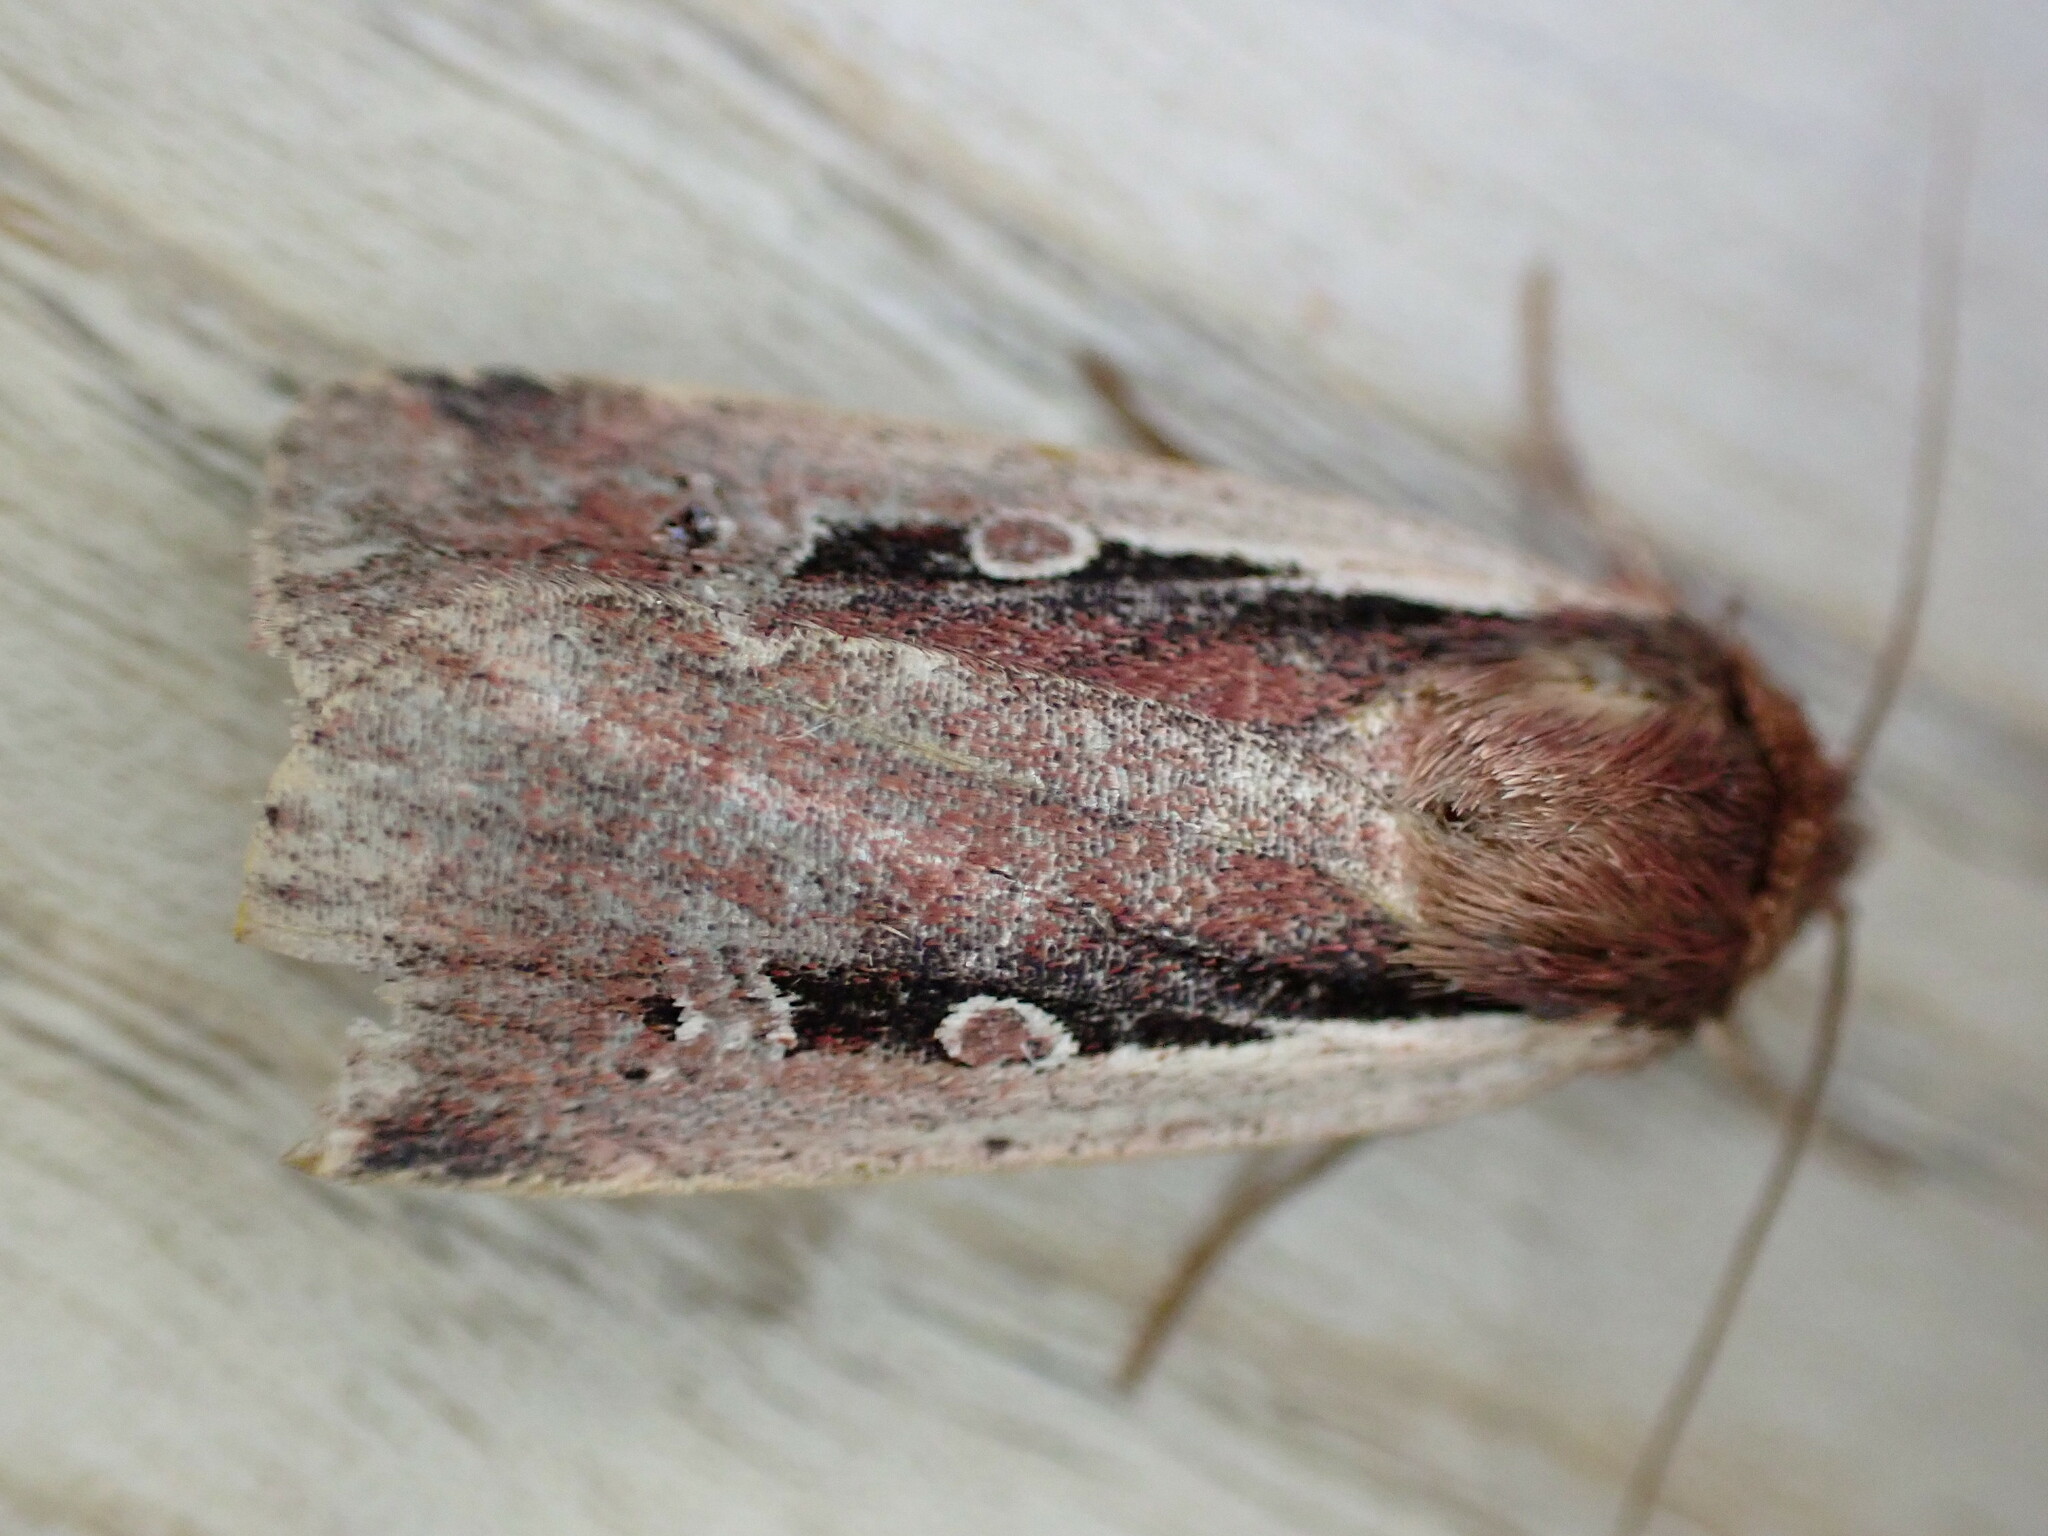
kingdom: Animalia
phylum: Arthropoda
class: Insecta
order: Lepidoptera
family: Noctuidae
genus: Ochropleura
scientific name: Ochropleura plecta
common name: Flame shoulder
